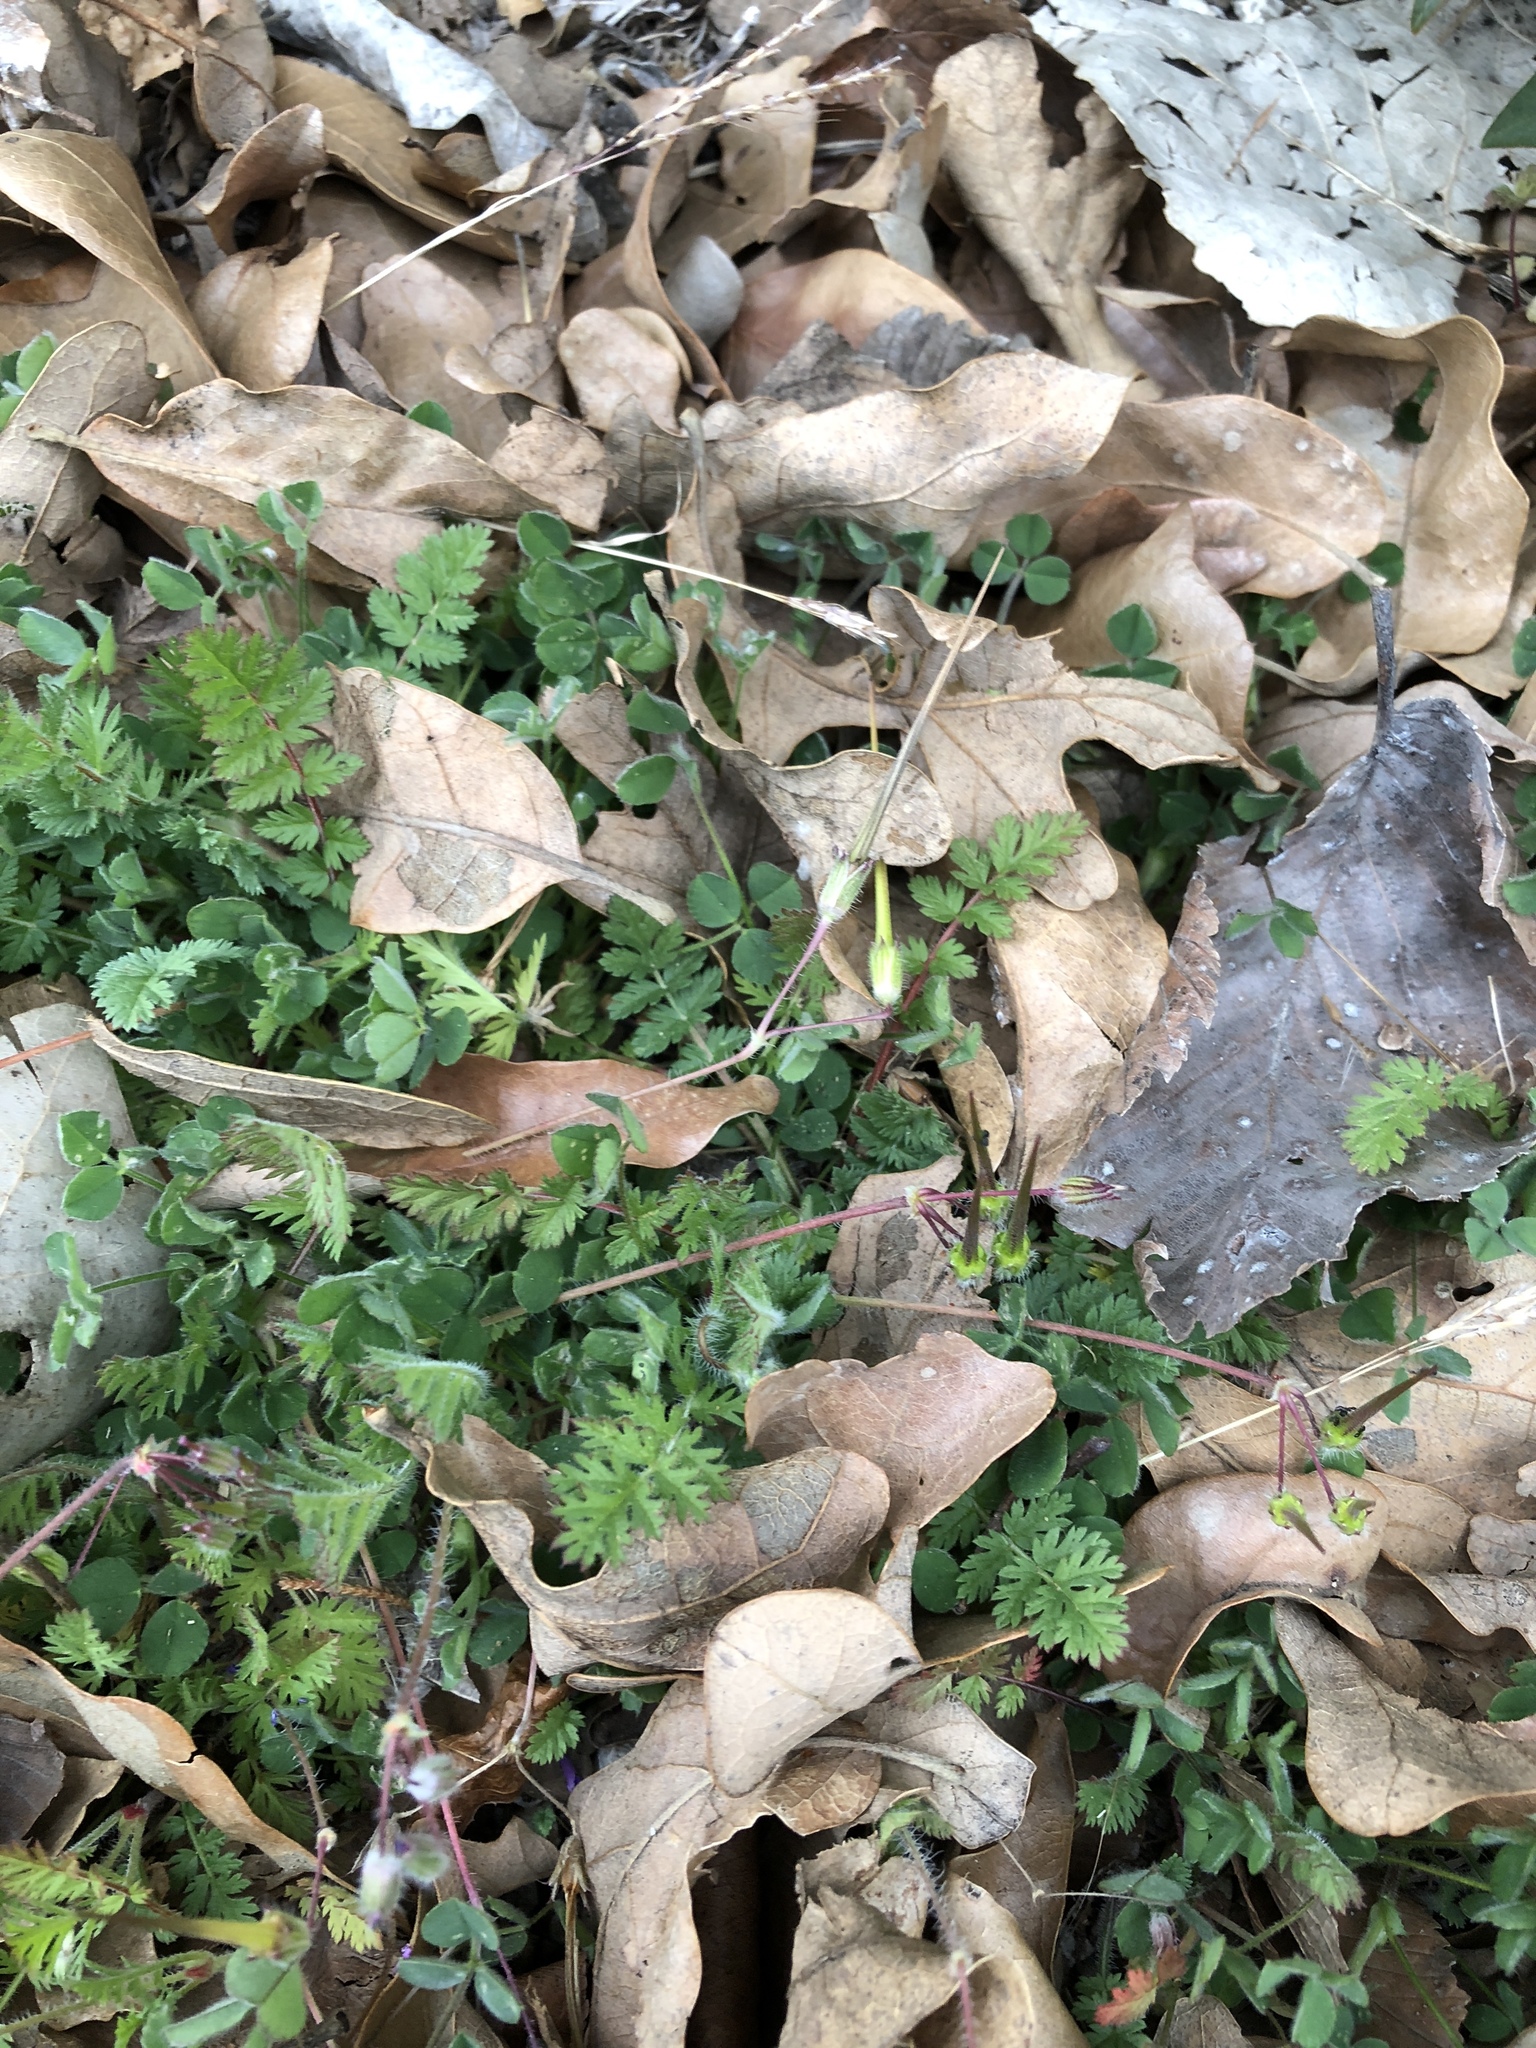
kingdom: Plantae
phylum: Tracheophyta
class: Magnoliopsida
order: Geraniales
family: Geraniaceae
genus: Erodium
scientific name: Erodium cicutarium
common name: Common stork's-bill
